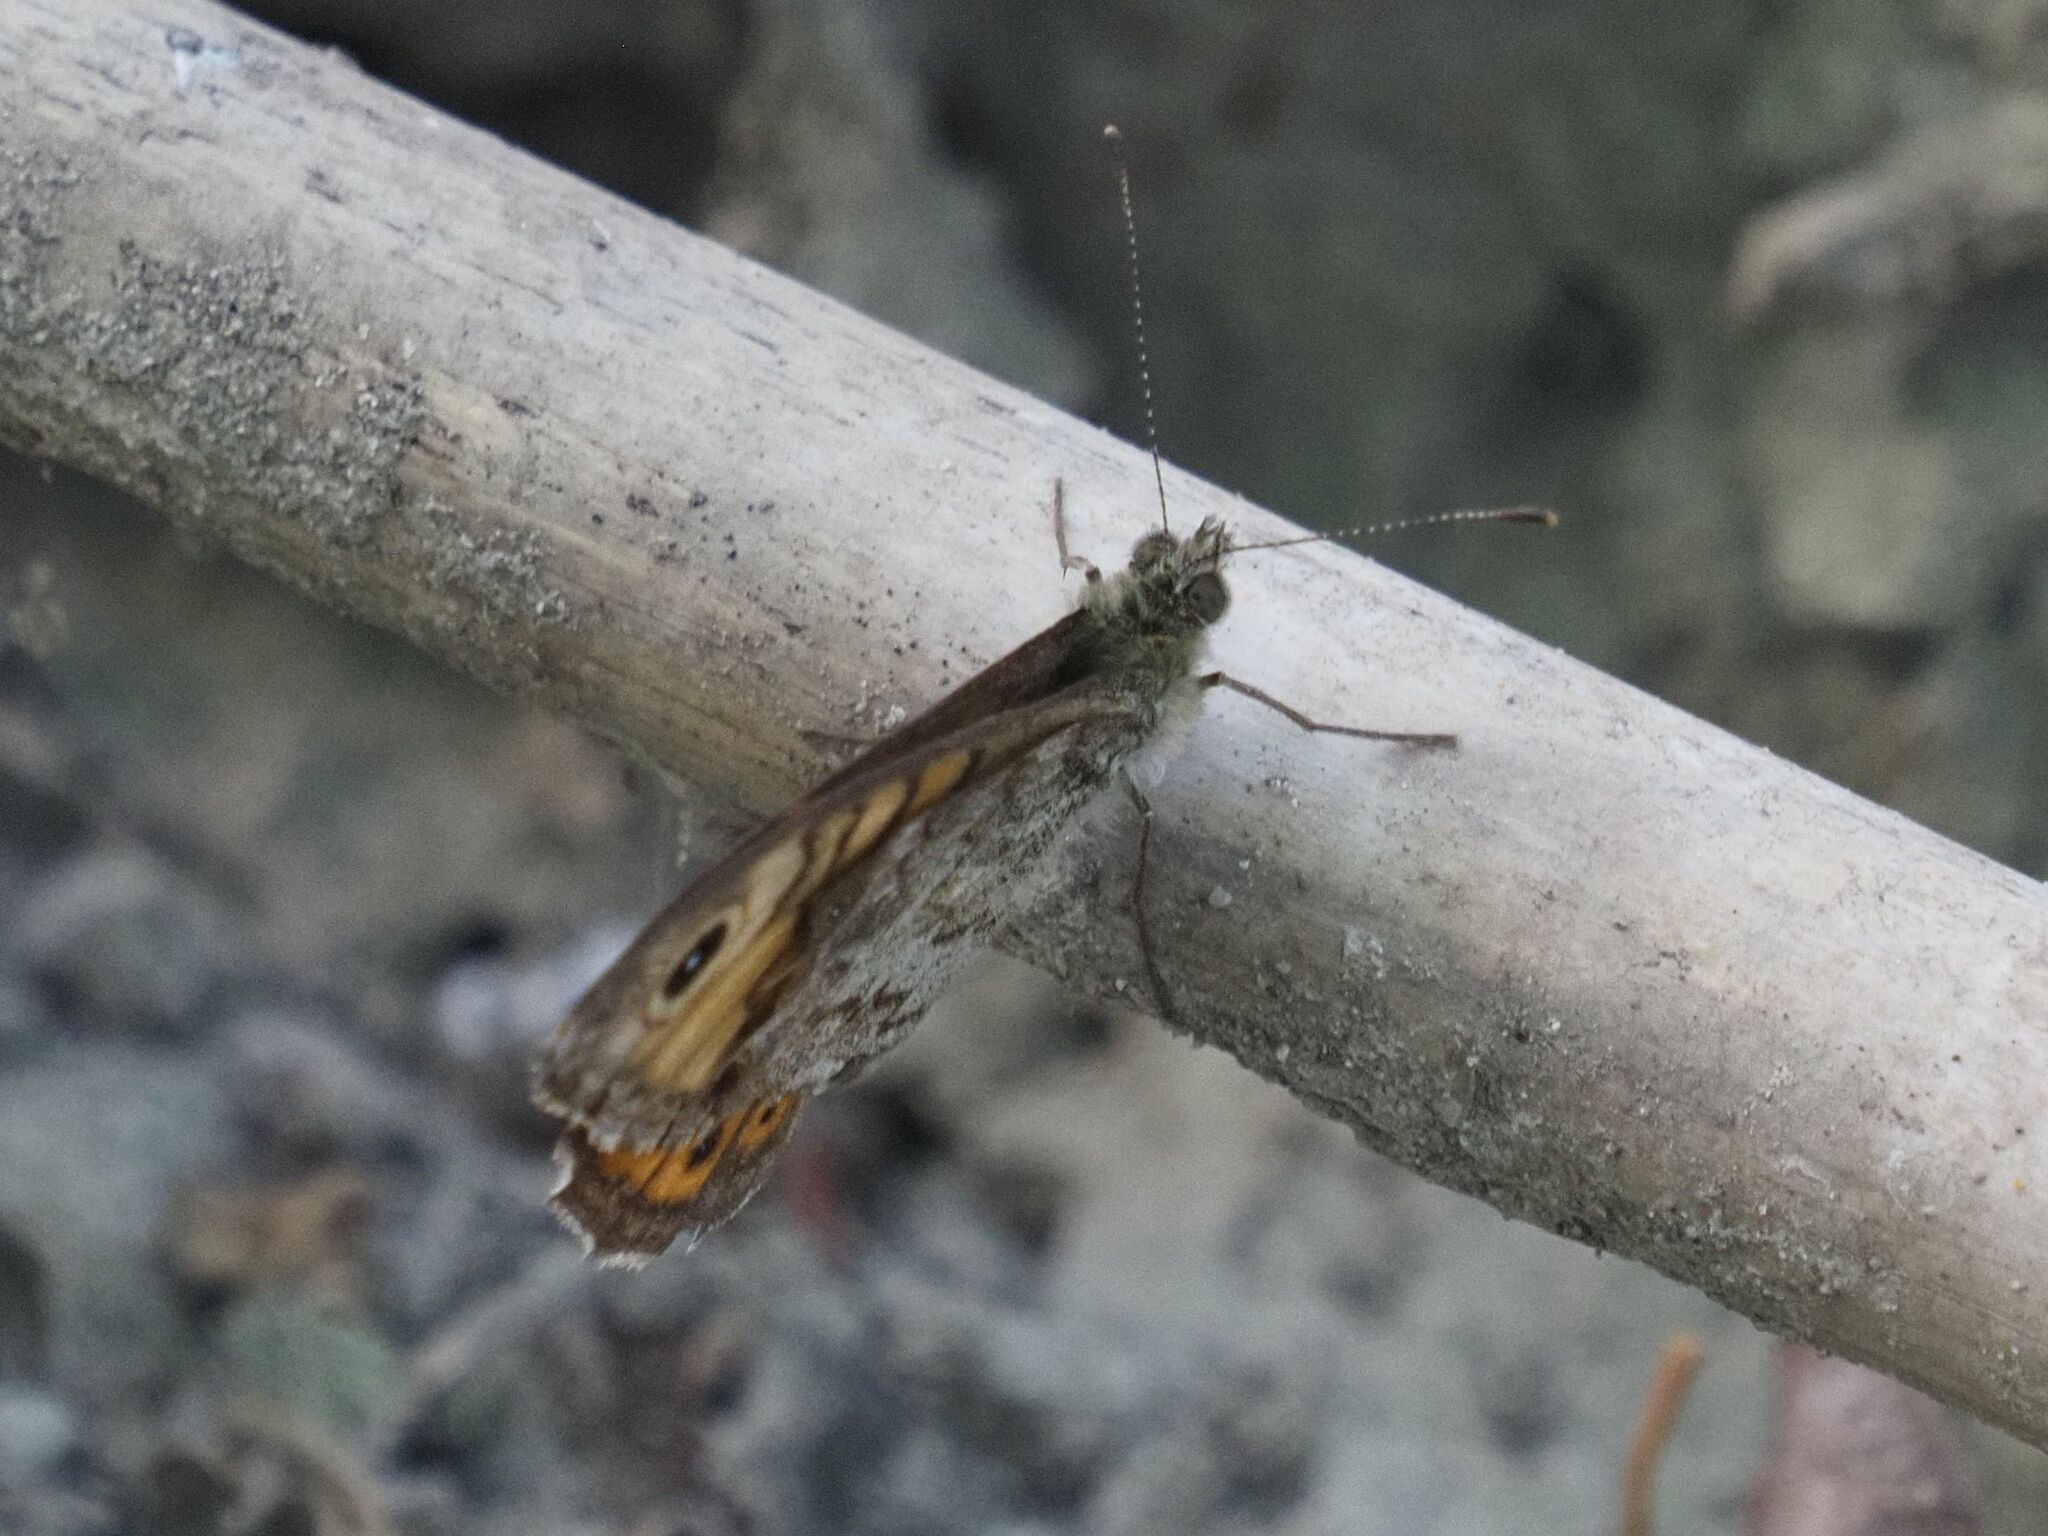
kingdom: Animalia
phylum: Arthropoda
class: Insecta
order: Lepidoptera
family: Nymphalidae
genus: Pararge
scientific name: Pararge Lasiommata megera
